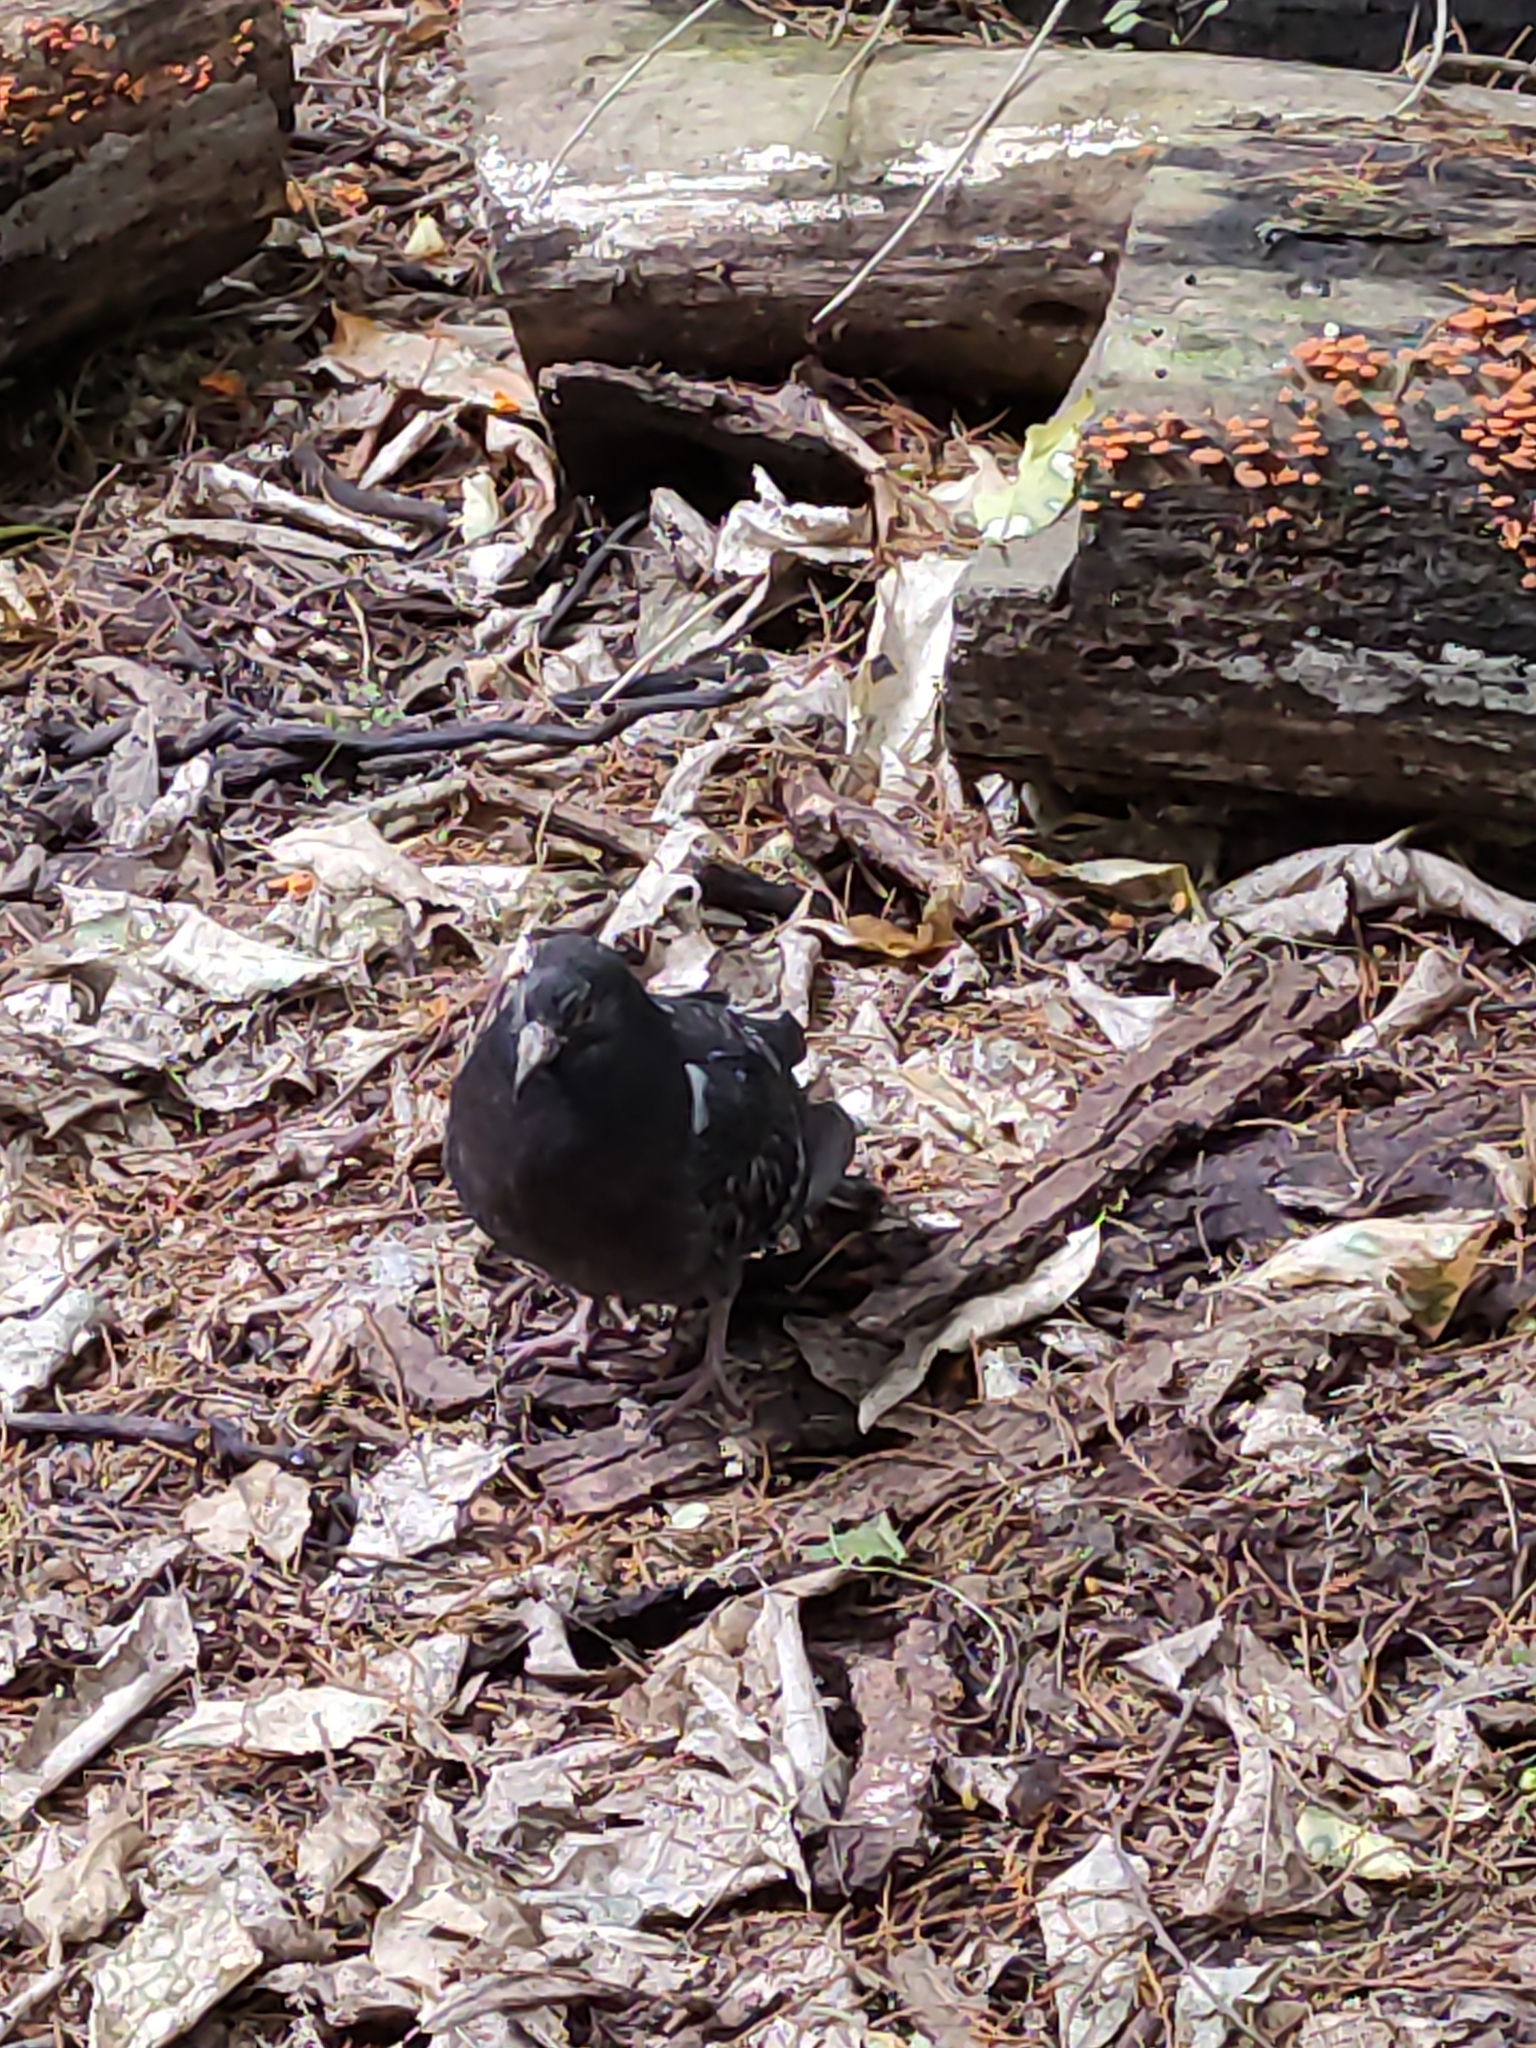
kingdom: Animalia
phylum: Chordata
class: Aves
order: Columbiformes
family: Columbidae
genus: Columba
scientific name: Columba livia
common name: Rock pigeon
